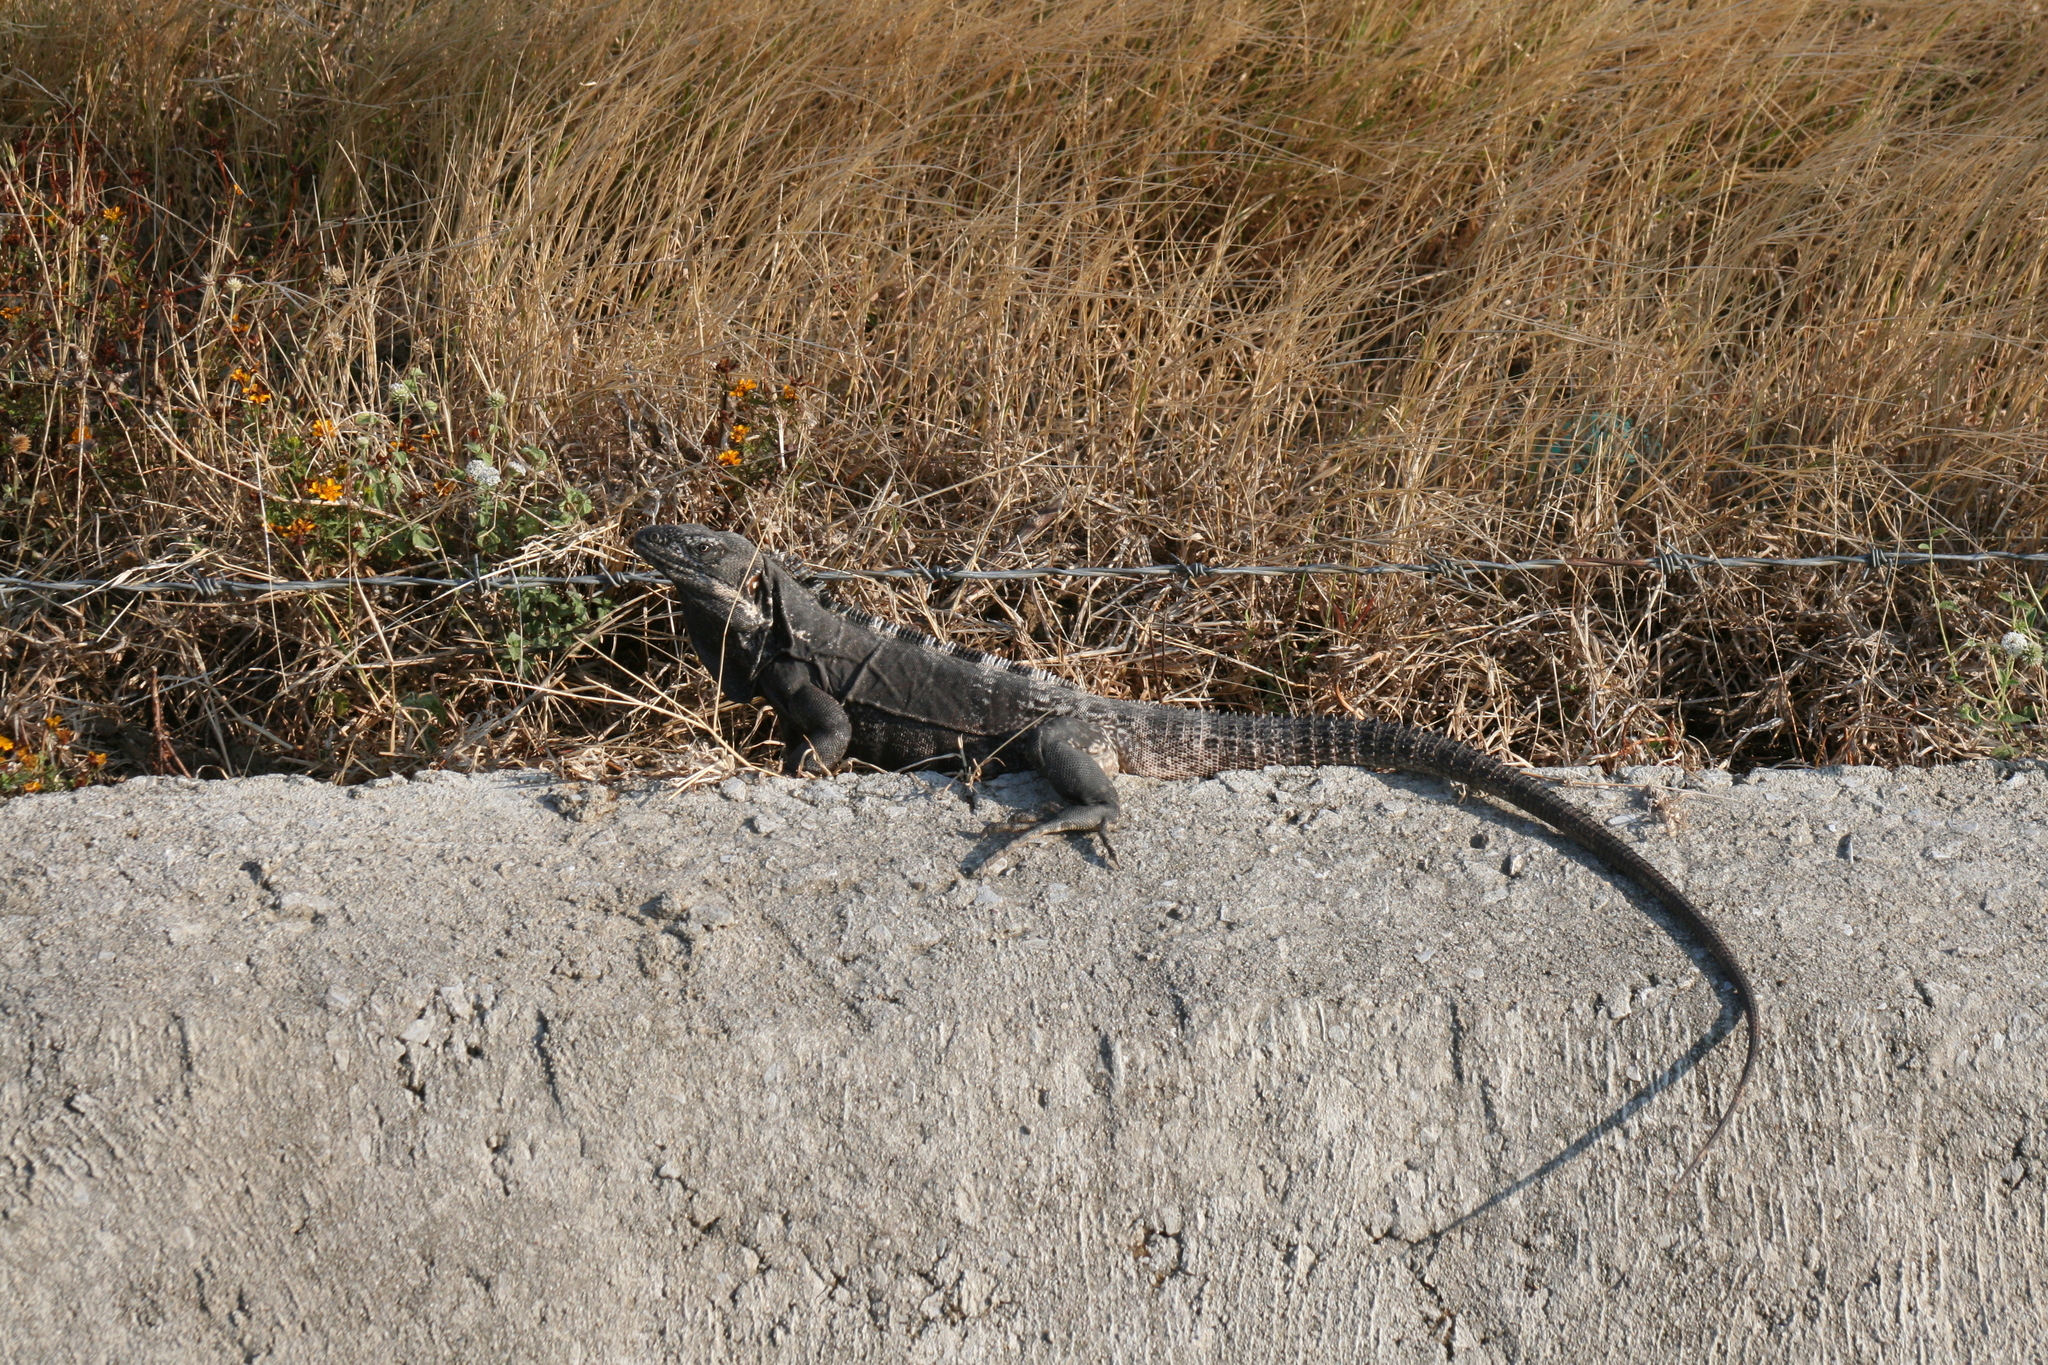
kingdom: Animalia
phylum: Chordata
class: Squamata
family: Iguanidae
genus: Ctenosaura
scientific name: Ctenosaura pectinata
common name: Guerreran spiny-tailed iguana
